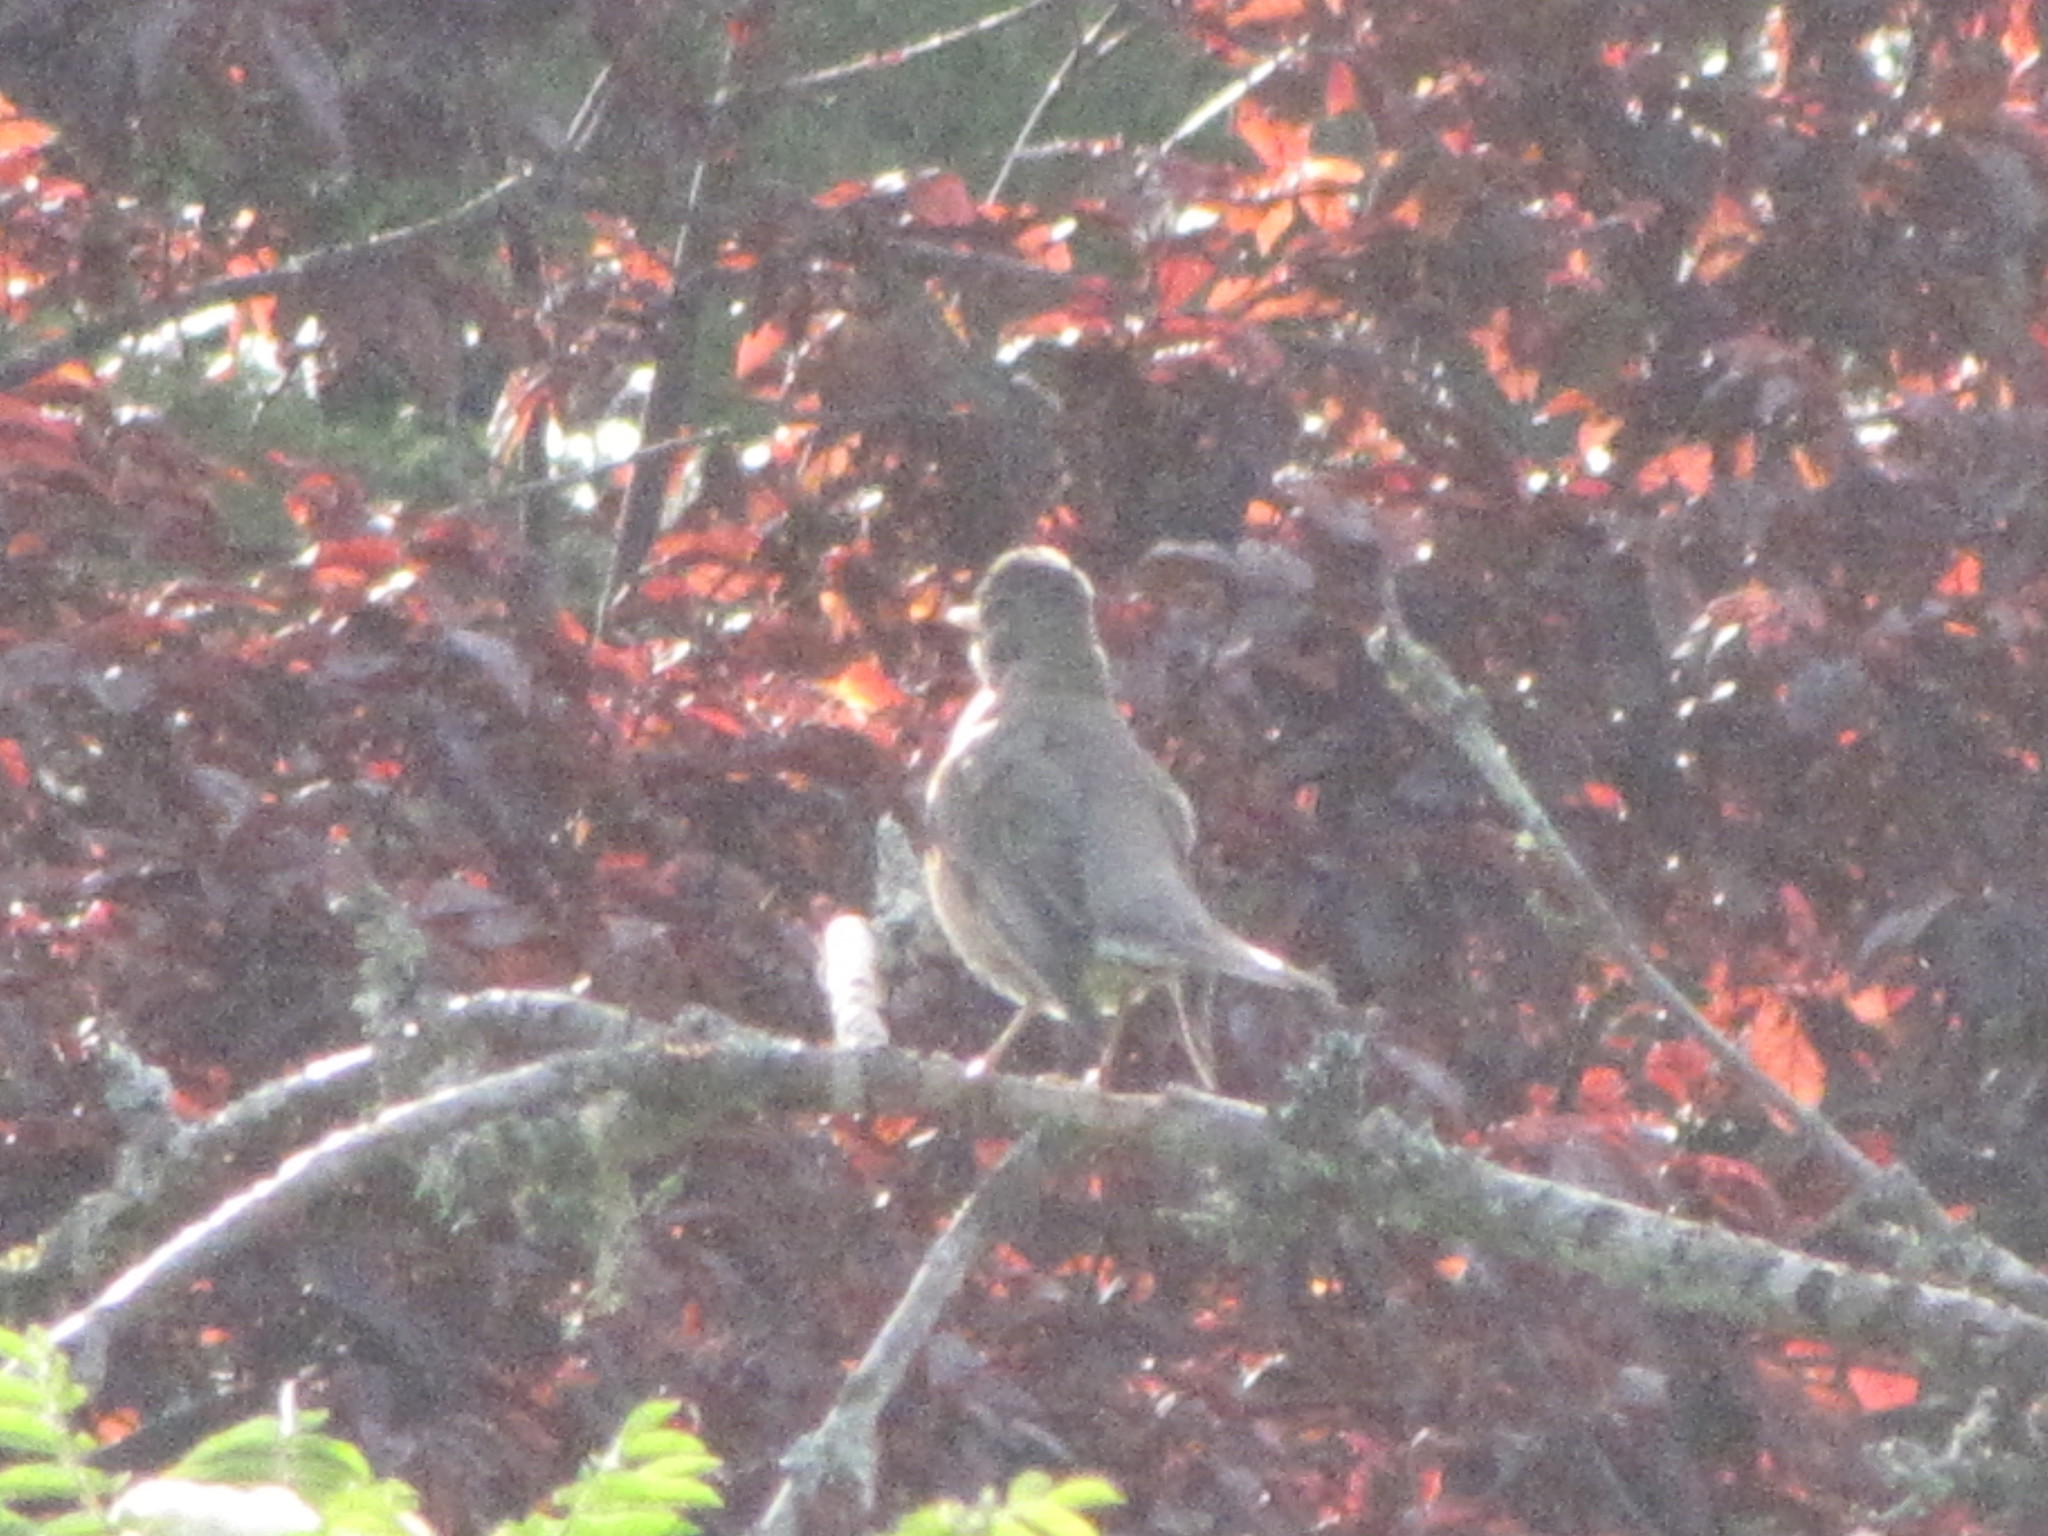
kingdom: Animalia
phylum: Chordata
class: Aves
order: Passeriformes
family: Turdidae
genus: Turdus
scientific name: Turdus migratorius
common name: American robin
